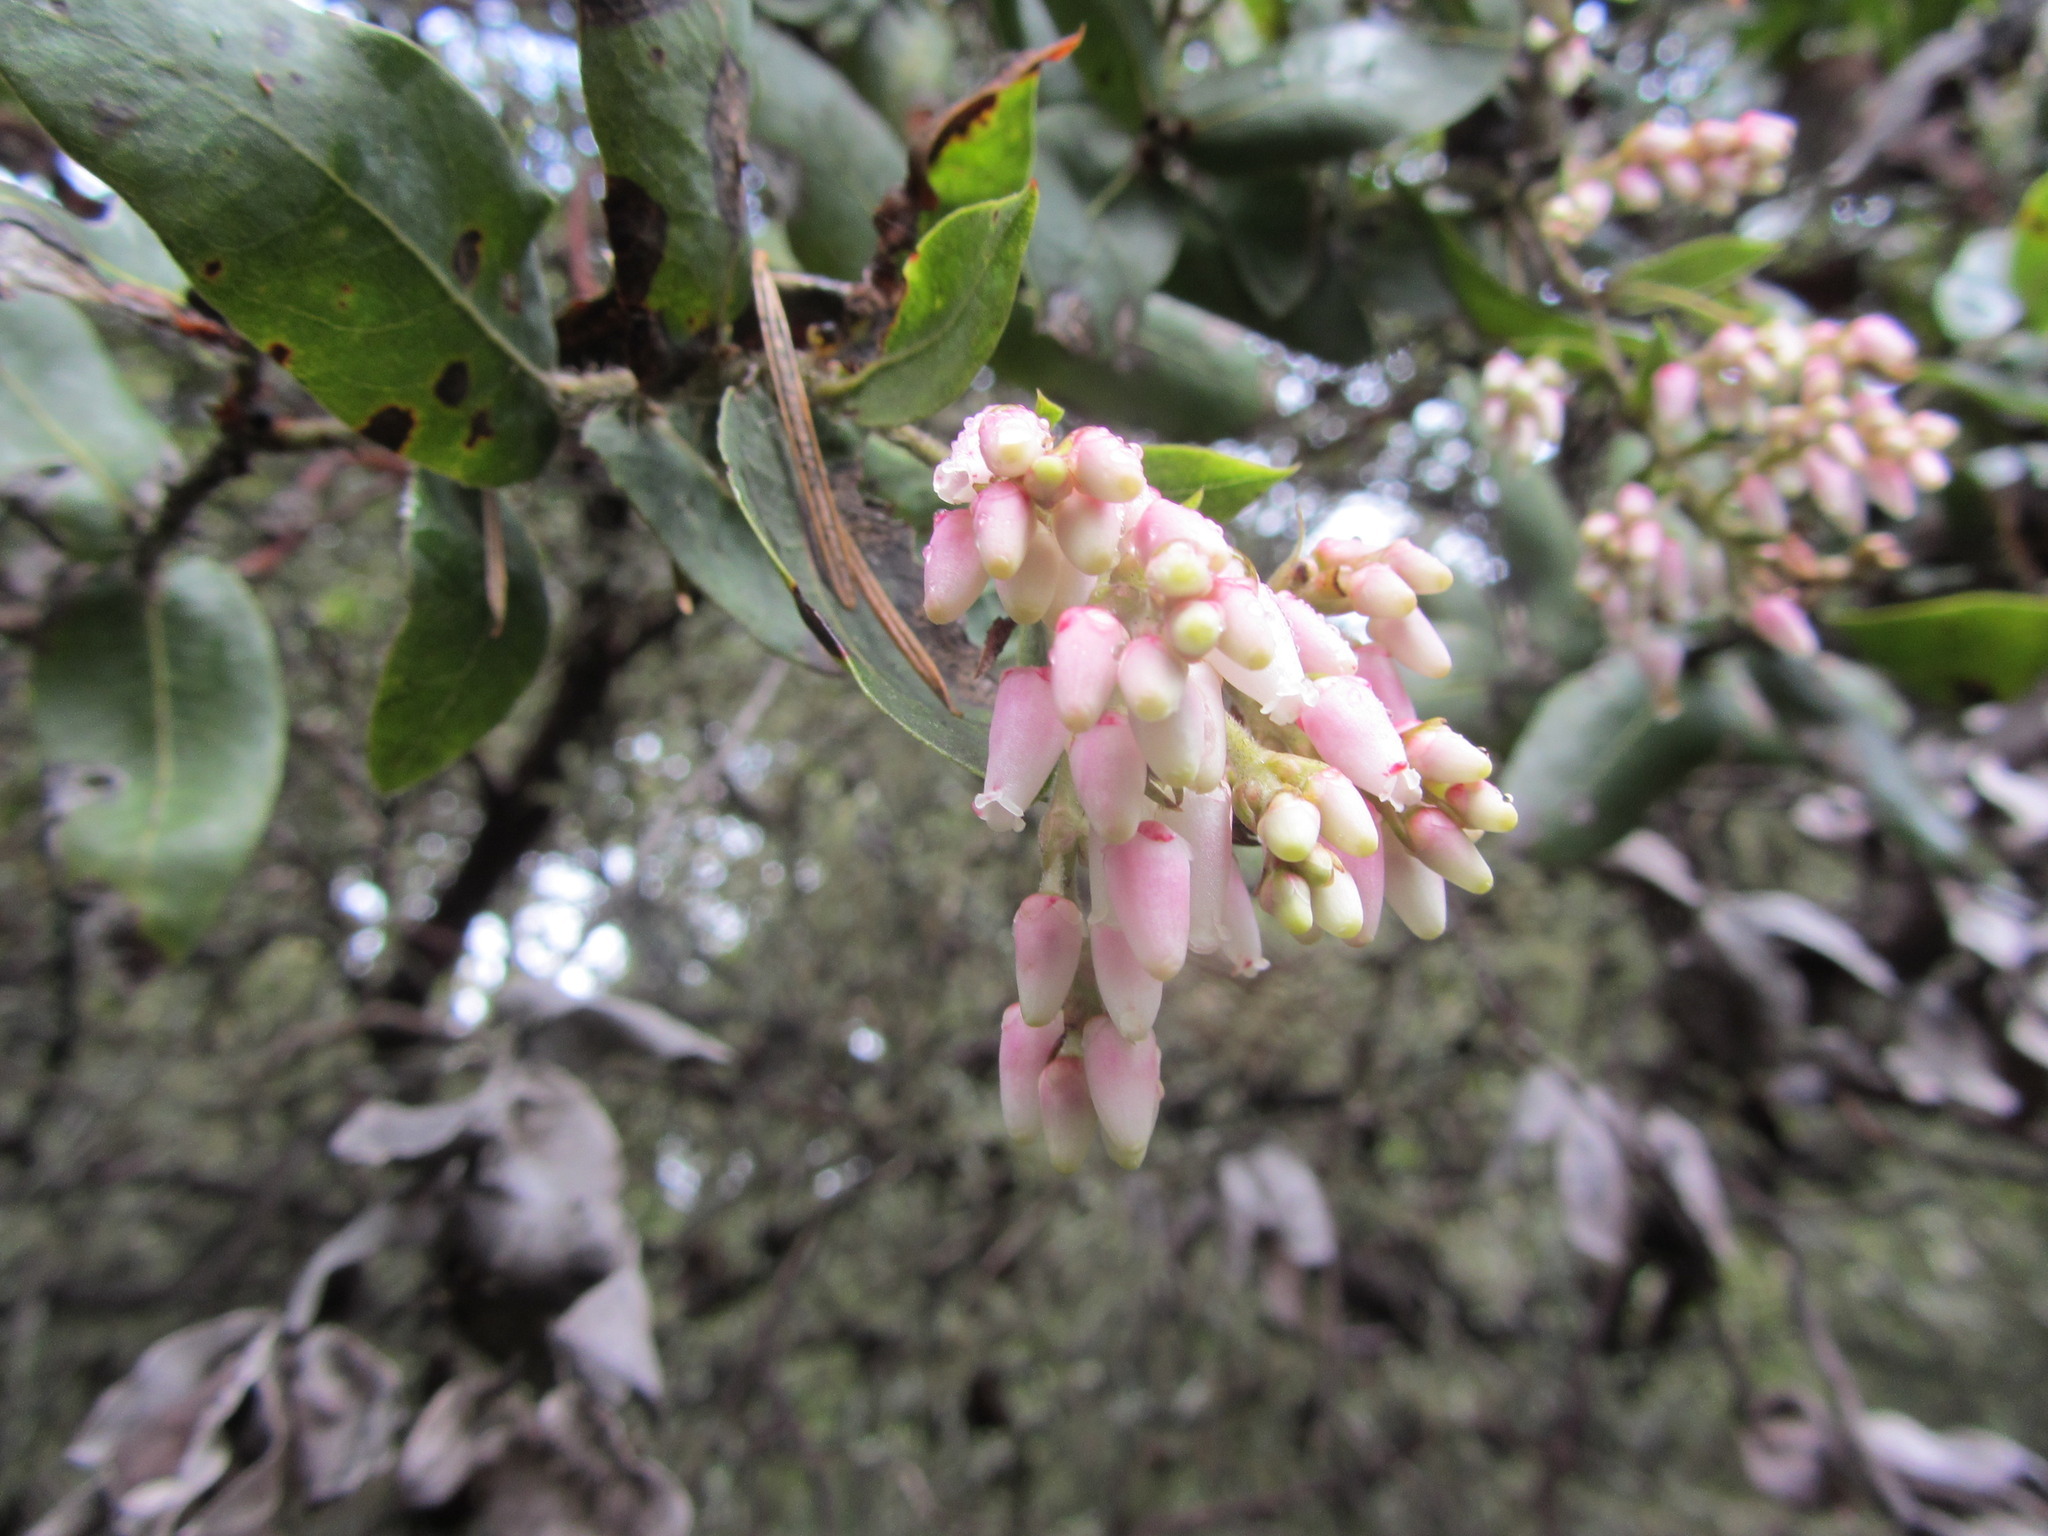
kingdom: Plantae
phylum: Tracheophyta
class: Magnoliopsida
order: Ericales
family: Ericaceae
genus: Arctostaphylos
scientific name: Arctostaphylos andersonii
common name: Santa cruz manzanita
